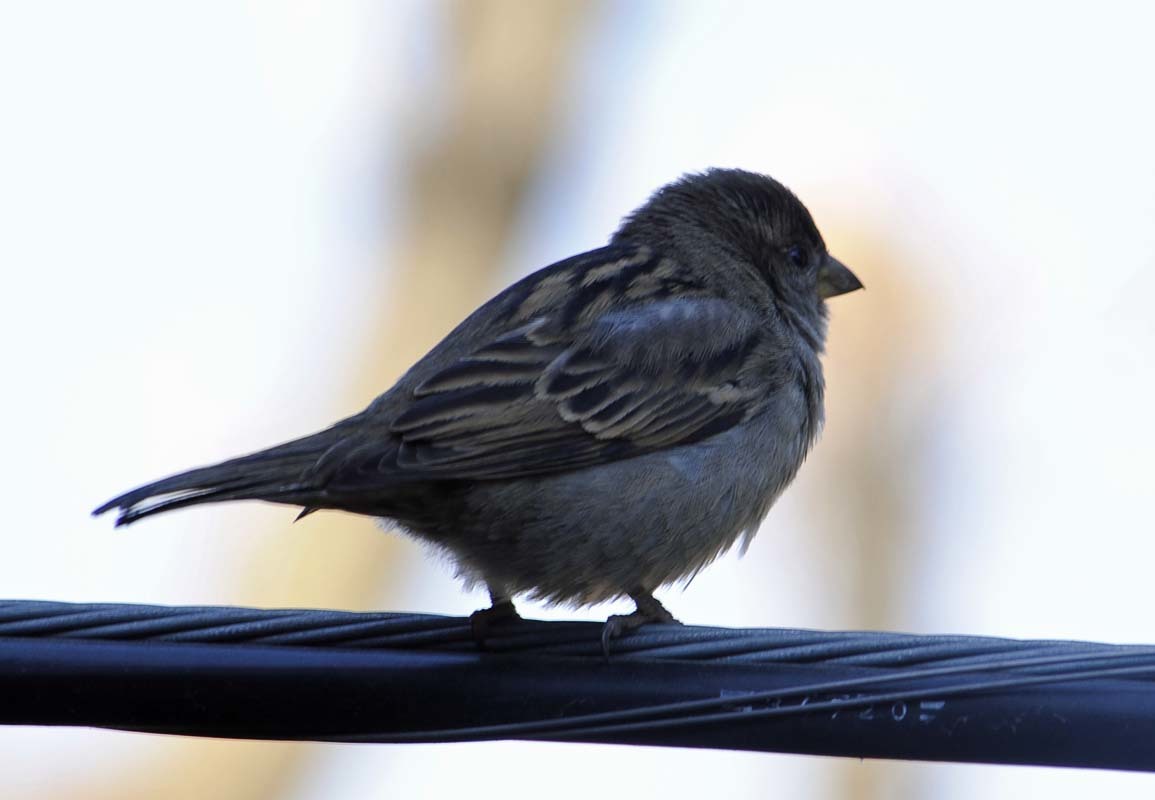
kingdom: Animalia
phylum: Chordata
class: Aves
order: Passeriformes
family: Passeridae
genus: Passer
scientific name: Passer domesticus
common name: House sparrow
